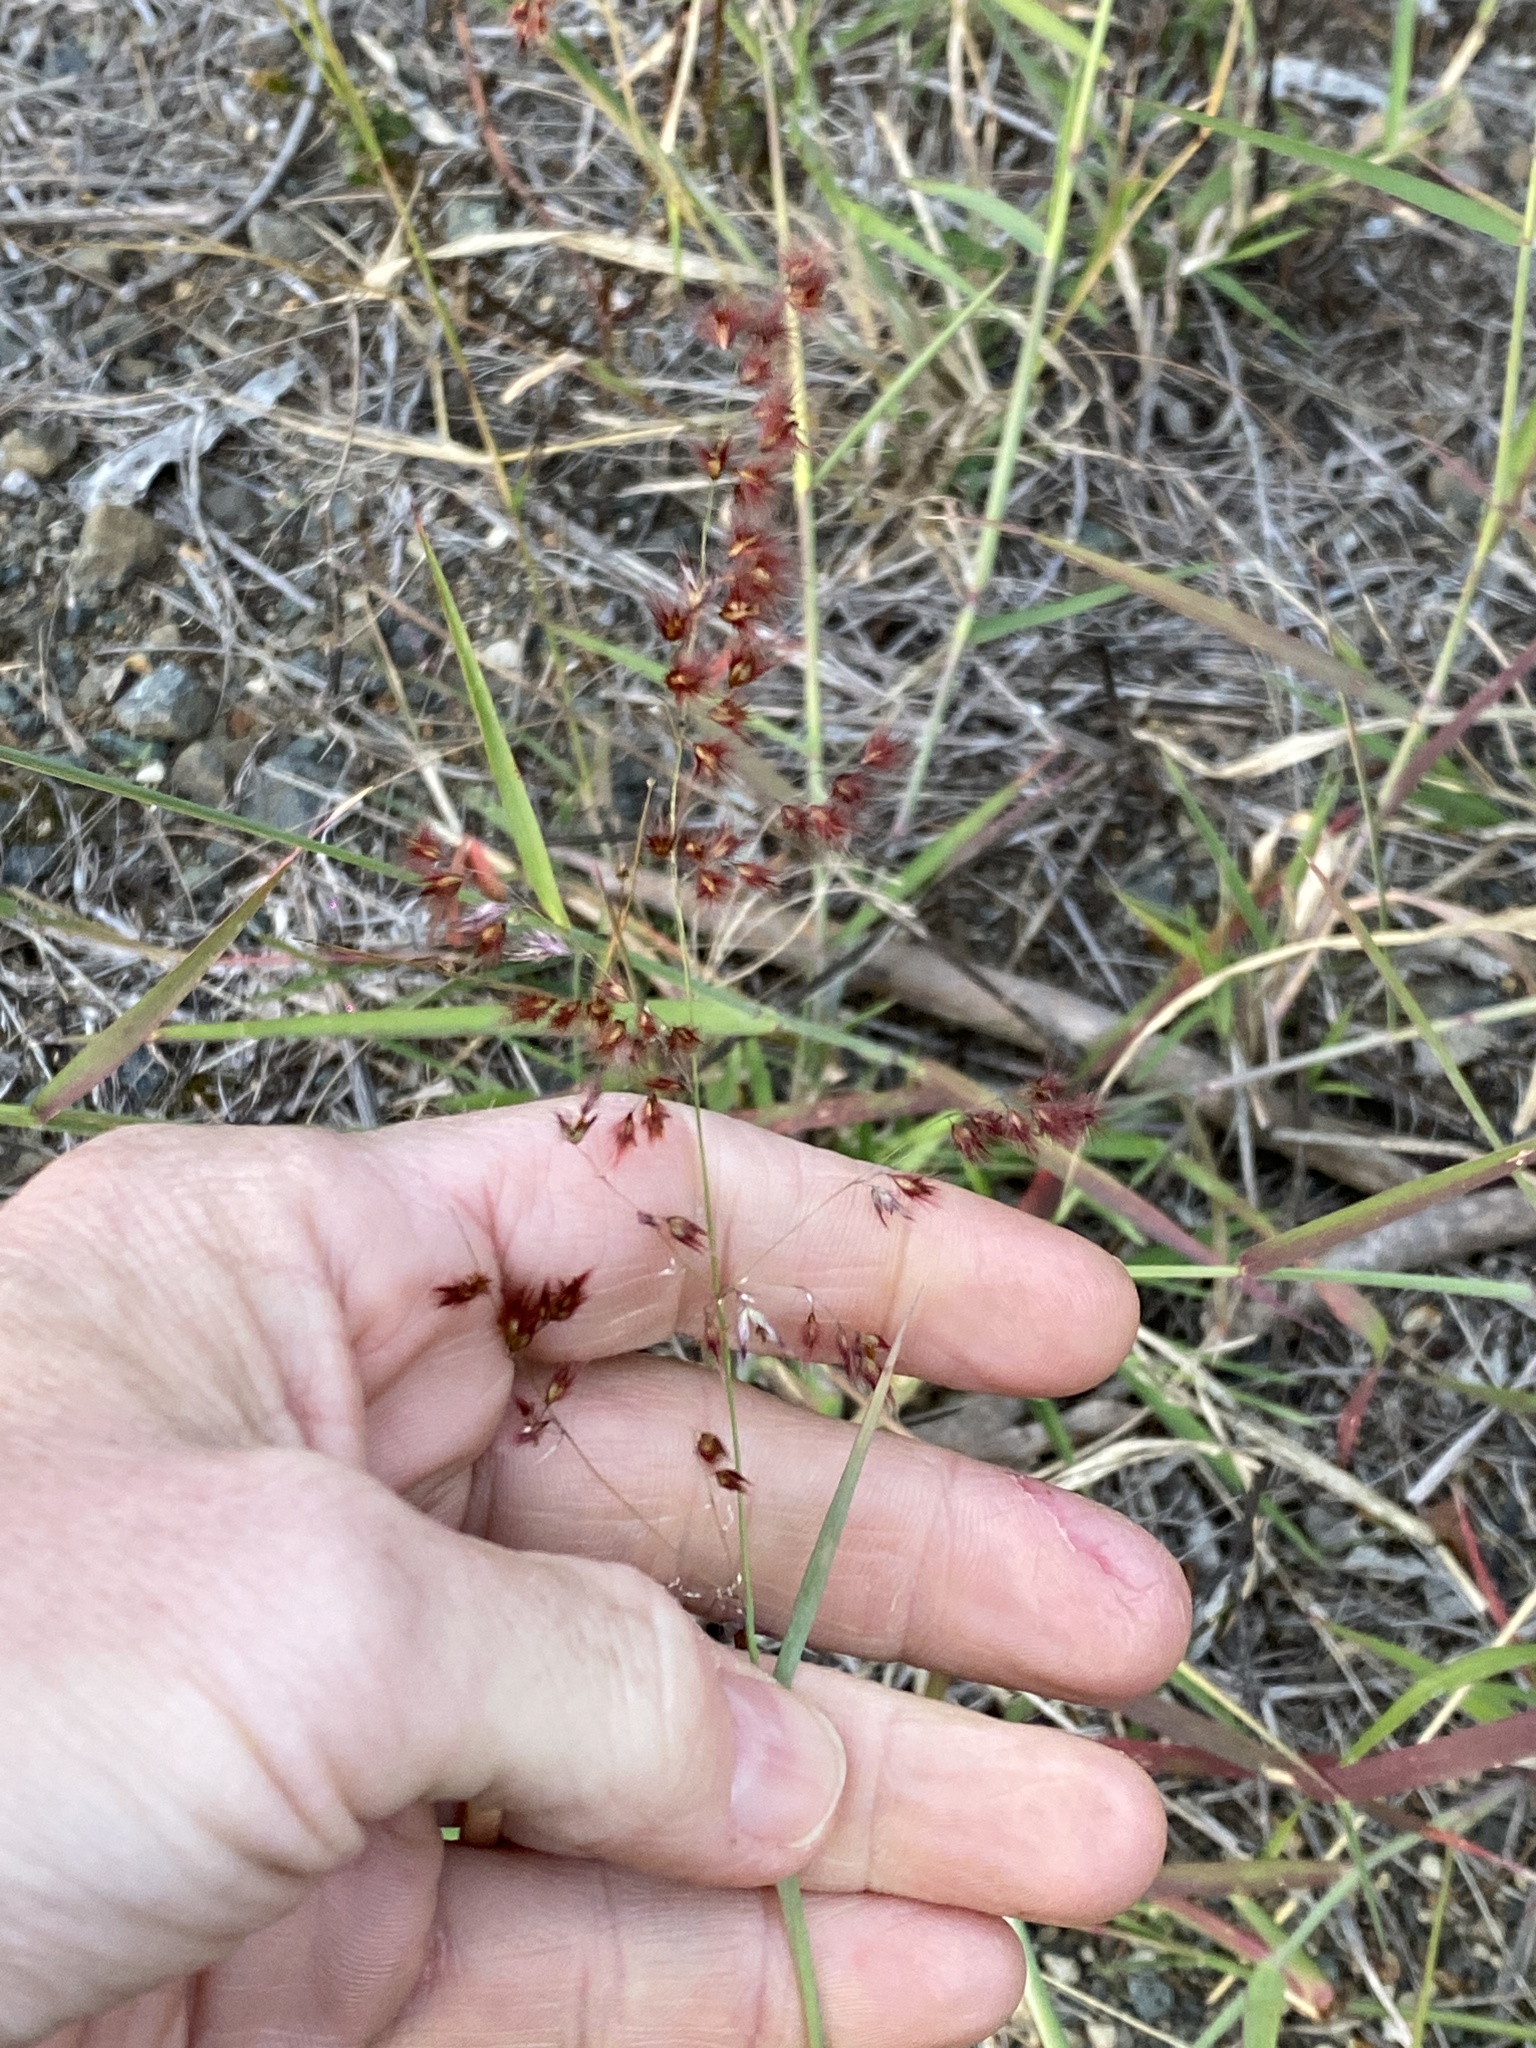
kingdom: Plantae
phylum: Tracheophyta
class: Liliopsida
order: Poales
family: Poaceae
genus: Melinis
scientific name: Melinis repens
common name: Rose natal grass
